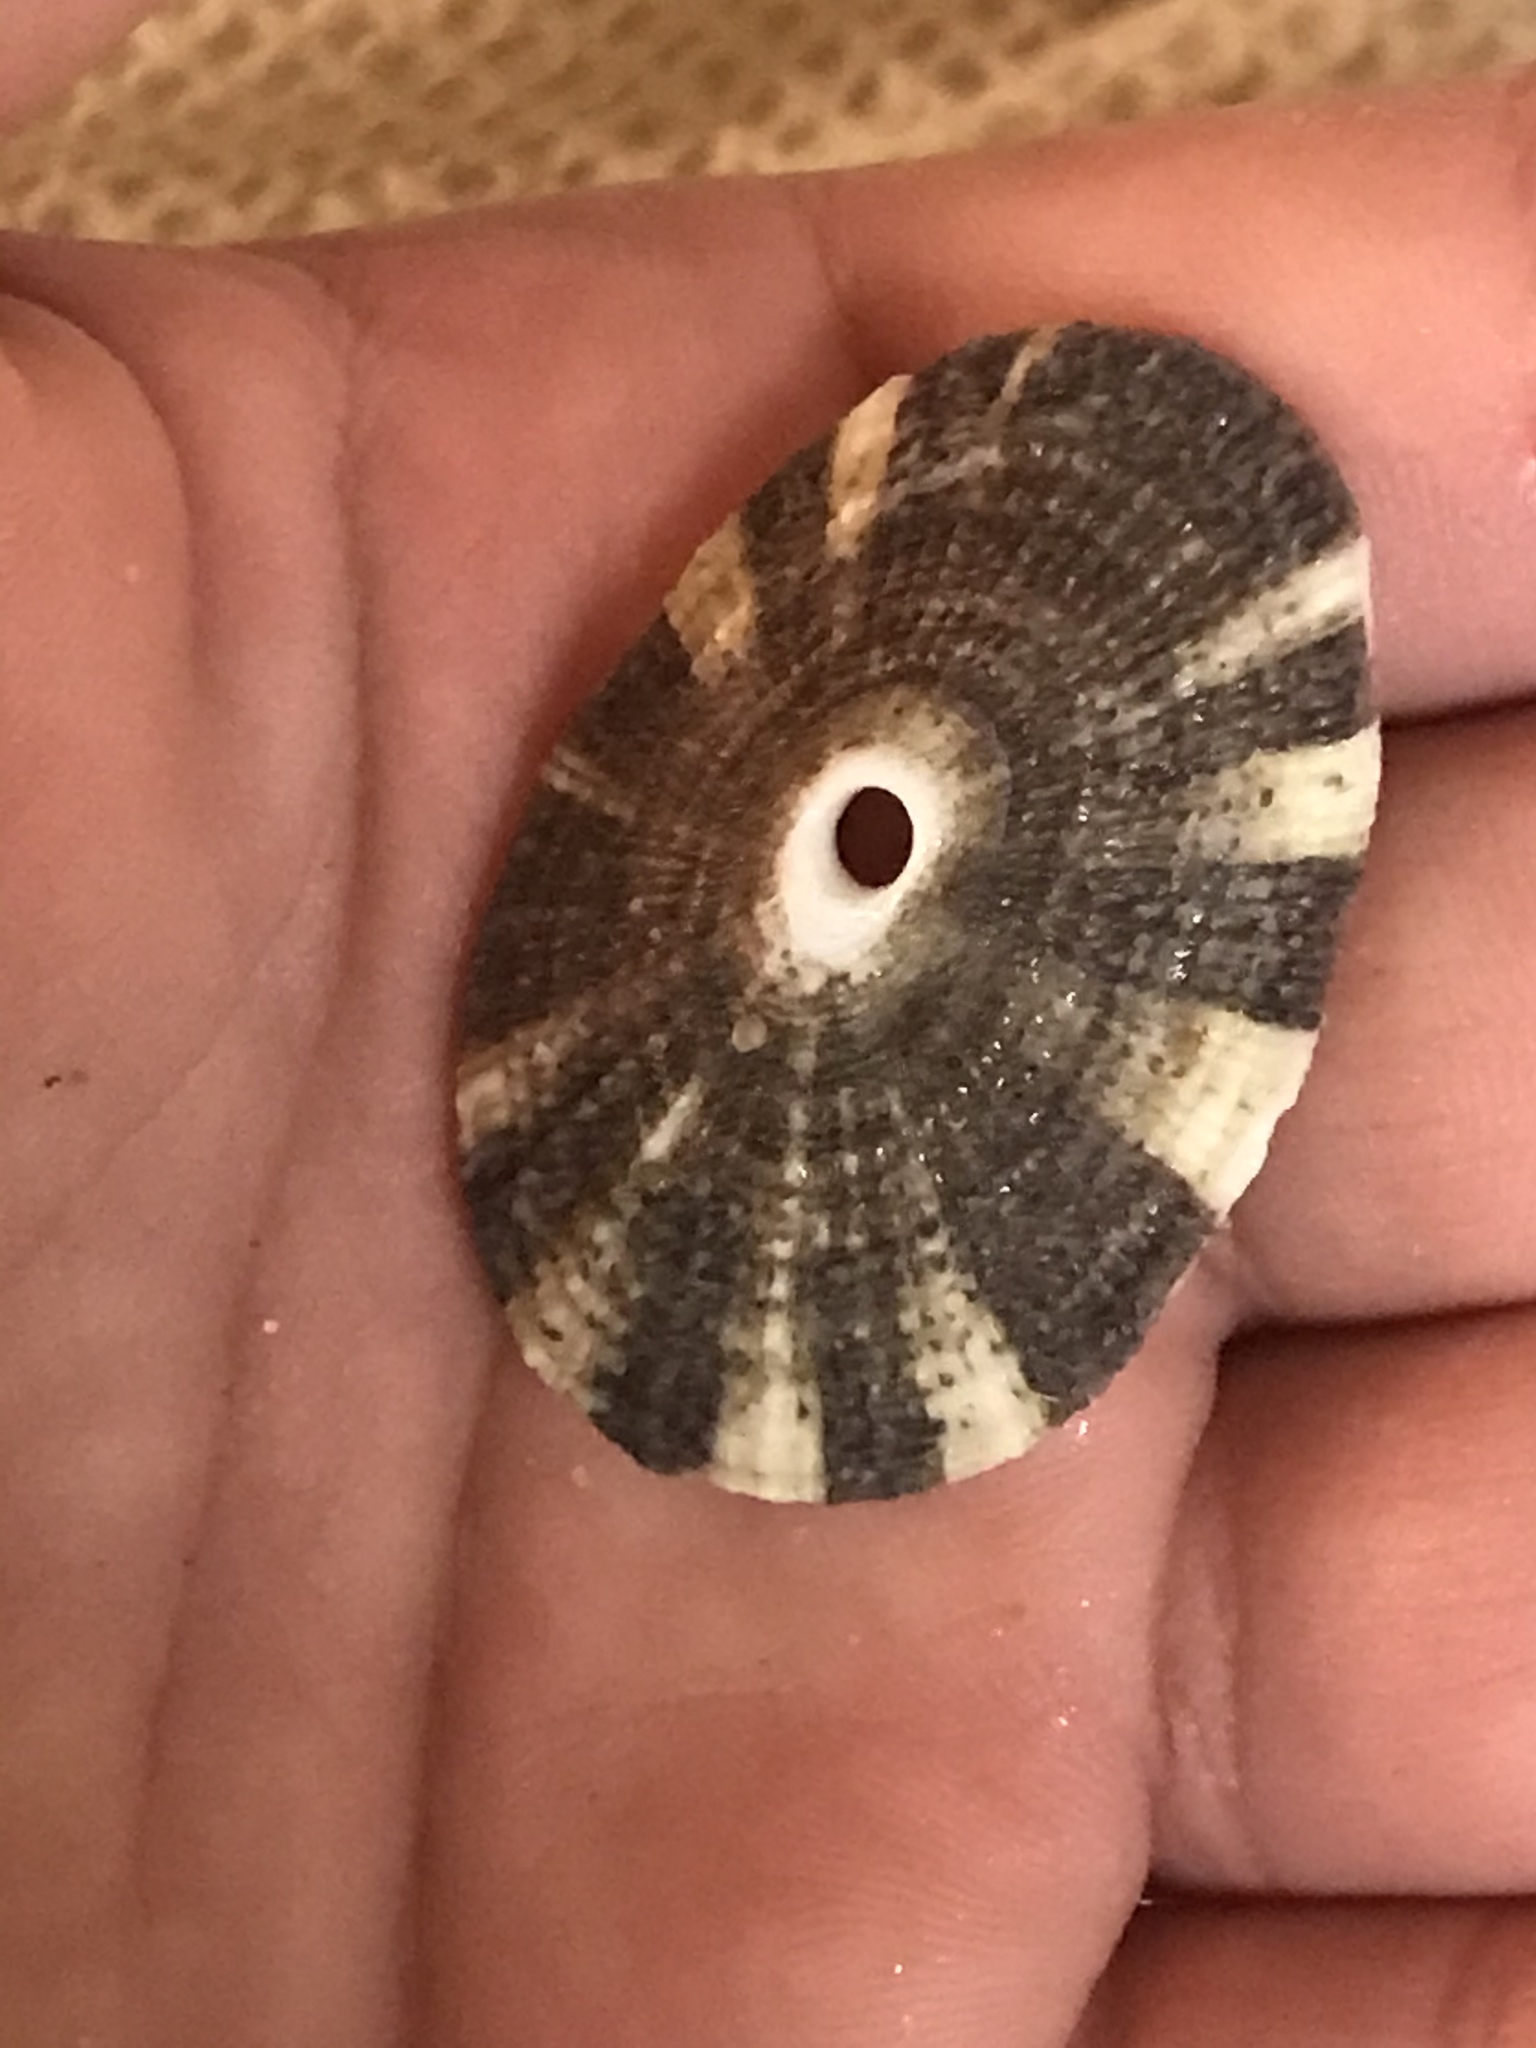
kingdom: Animalia
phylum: Mollusca
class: Gastropoda
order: Lepetellida
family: Fissurellidae
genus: Diodora
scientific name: Diodora aspera
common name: Rough keyhole limpet
